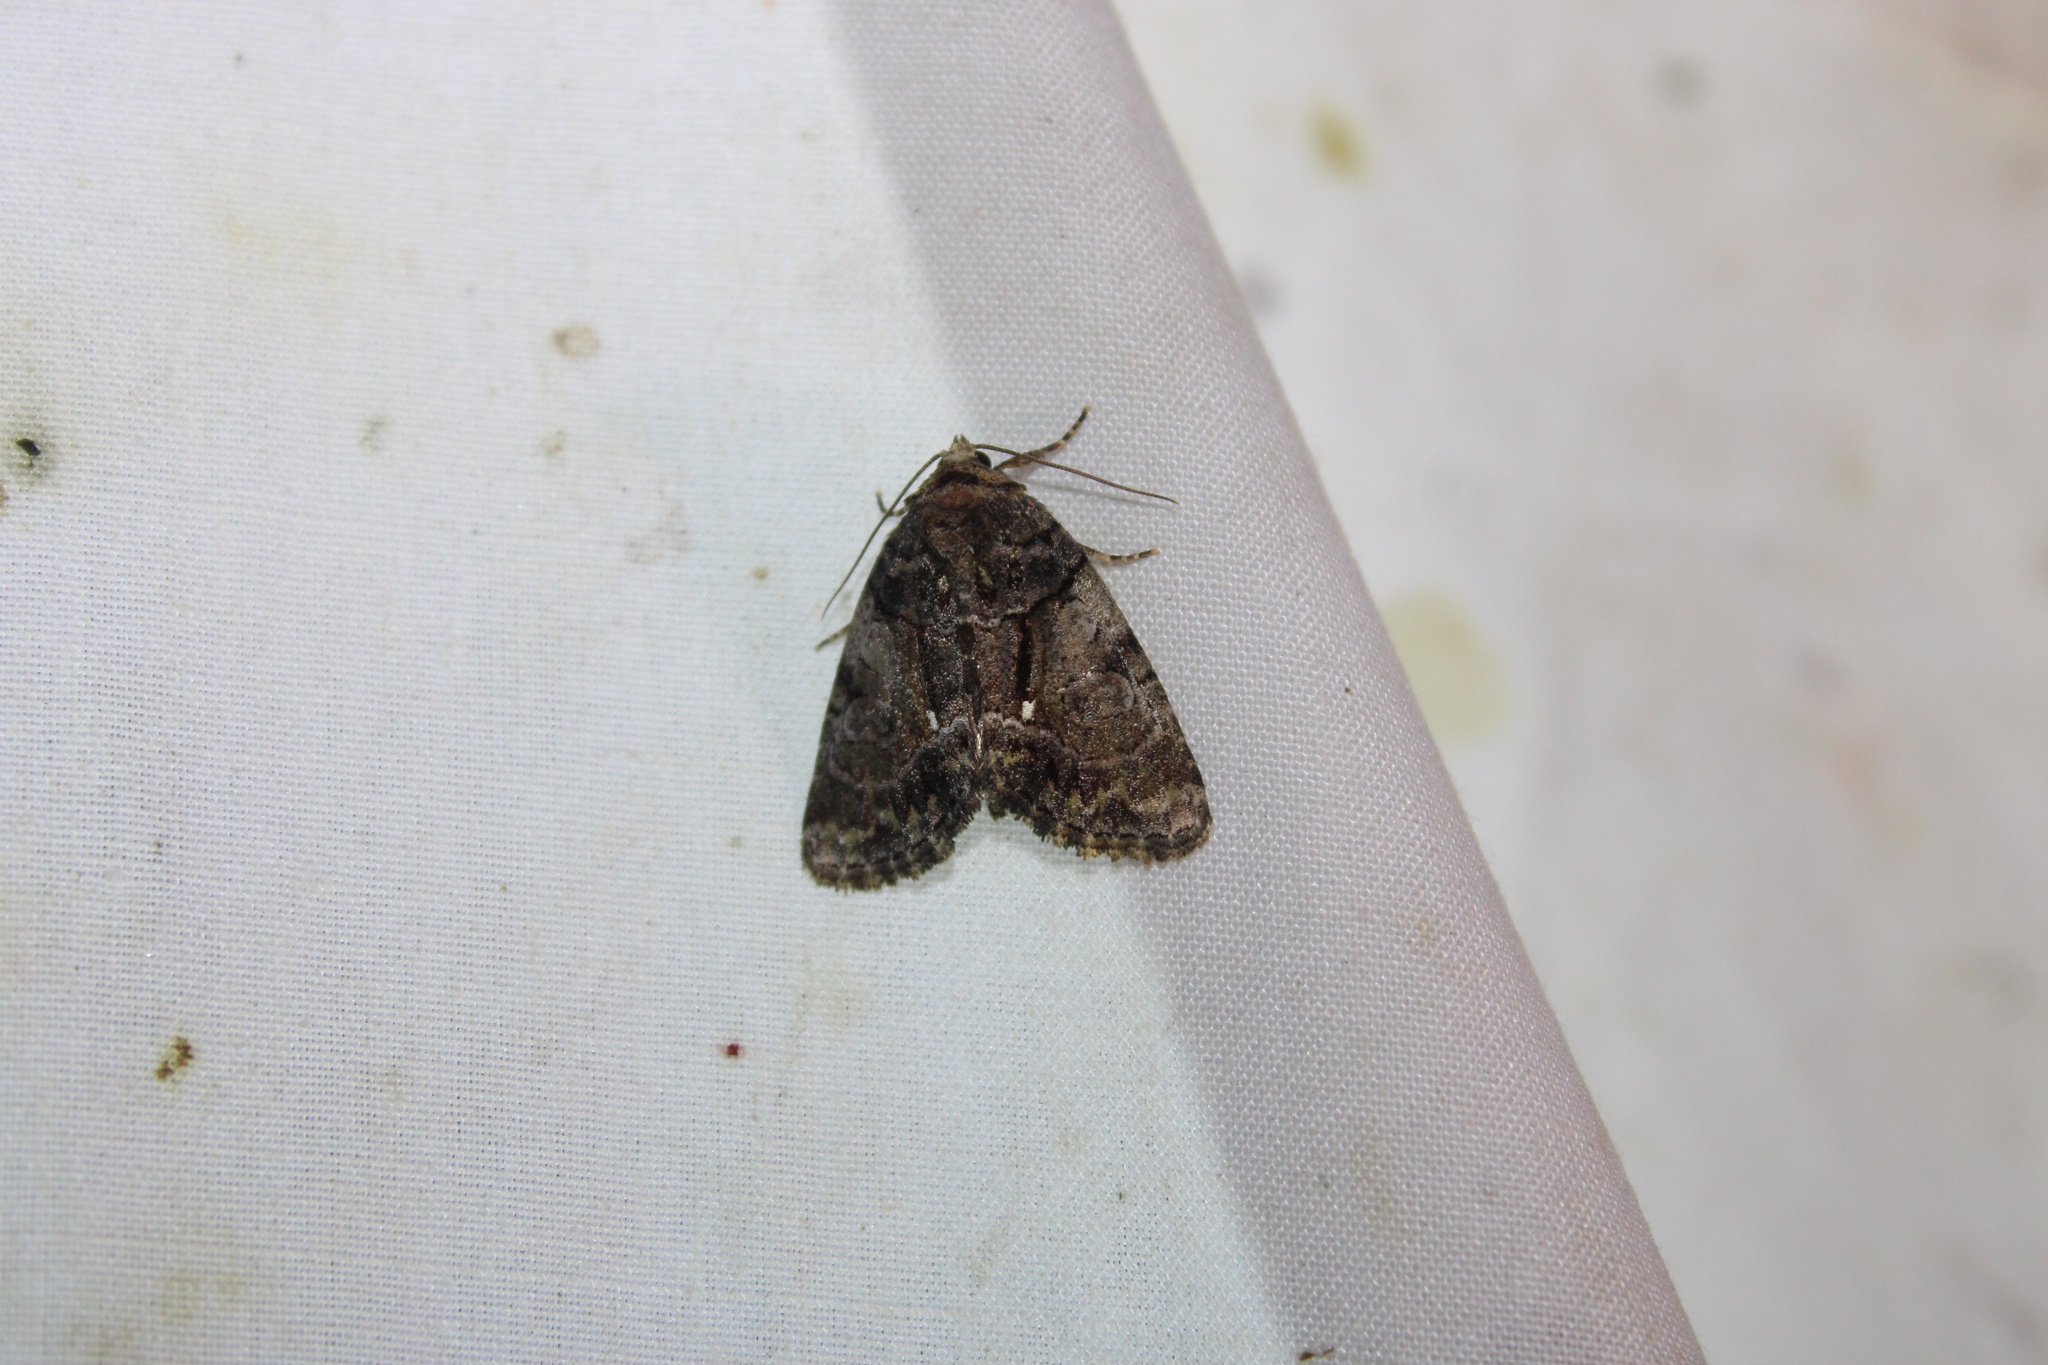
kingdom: Animalia
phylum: Arthropoda
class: Insecta
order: Lepidoptera
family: Noctuidae
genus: Chytonix
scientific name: Chytonix palliatricula
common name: Cloaked marvel
